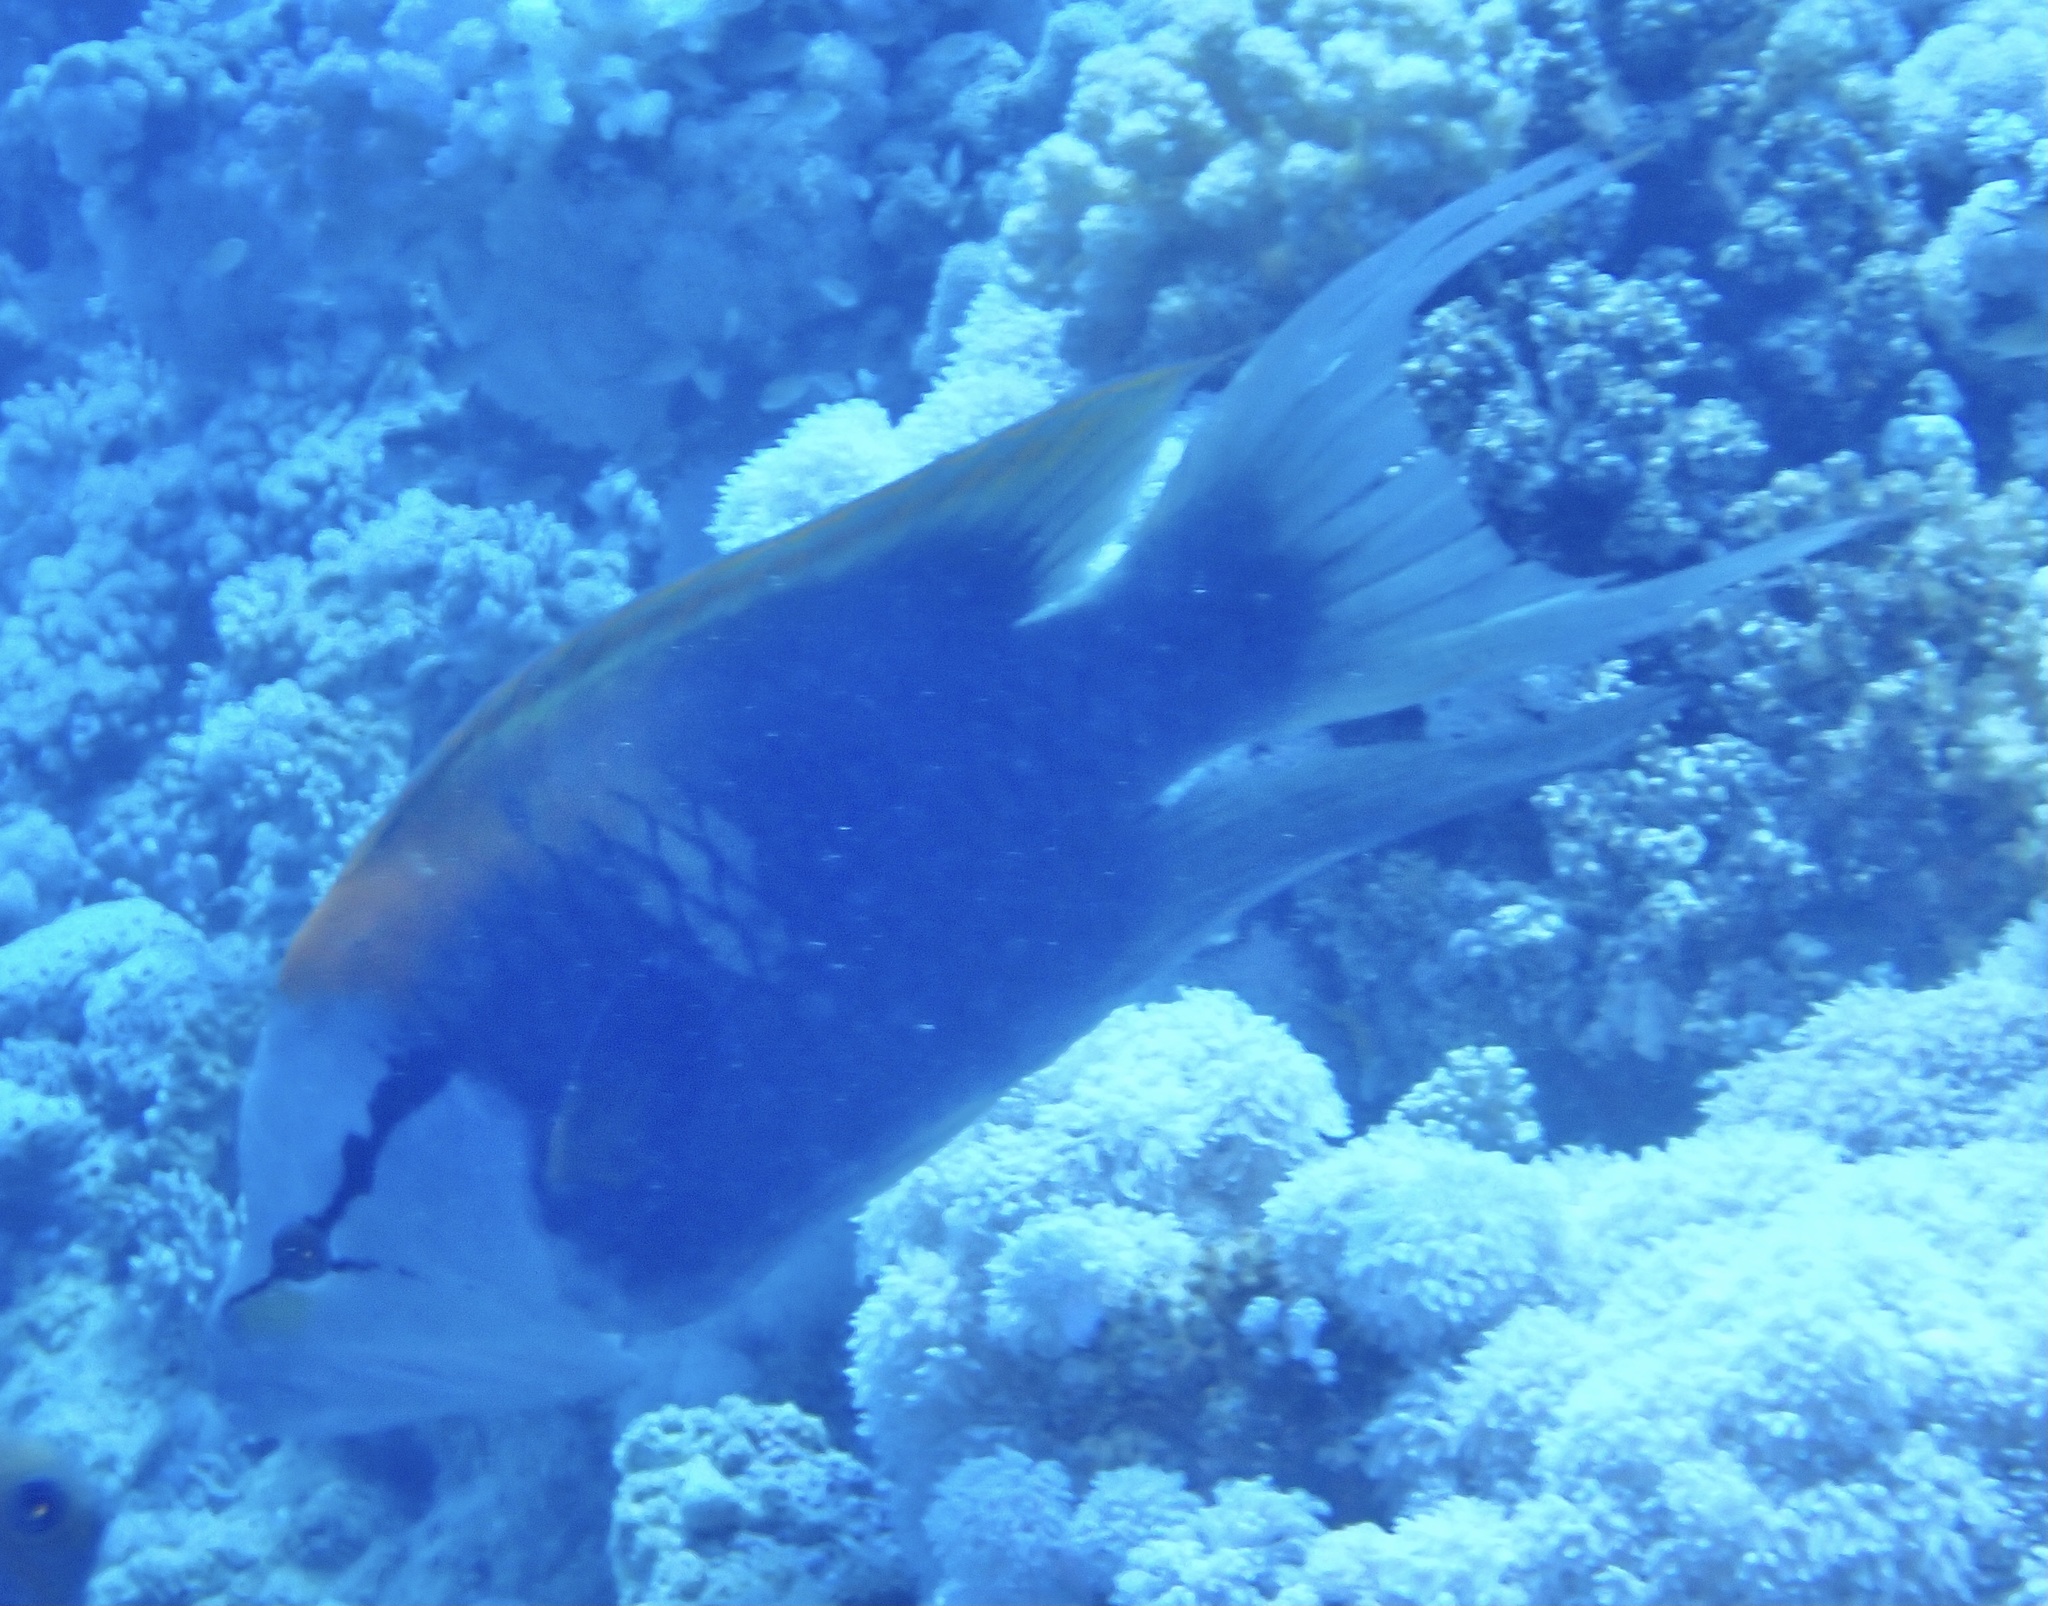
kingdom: Animalia
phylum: Chordata
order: Perciformes
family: Labridae
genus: Epibulus
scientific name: Epibulus insidiator
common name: Slingjaw wrasse
